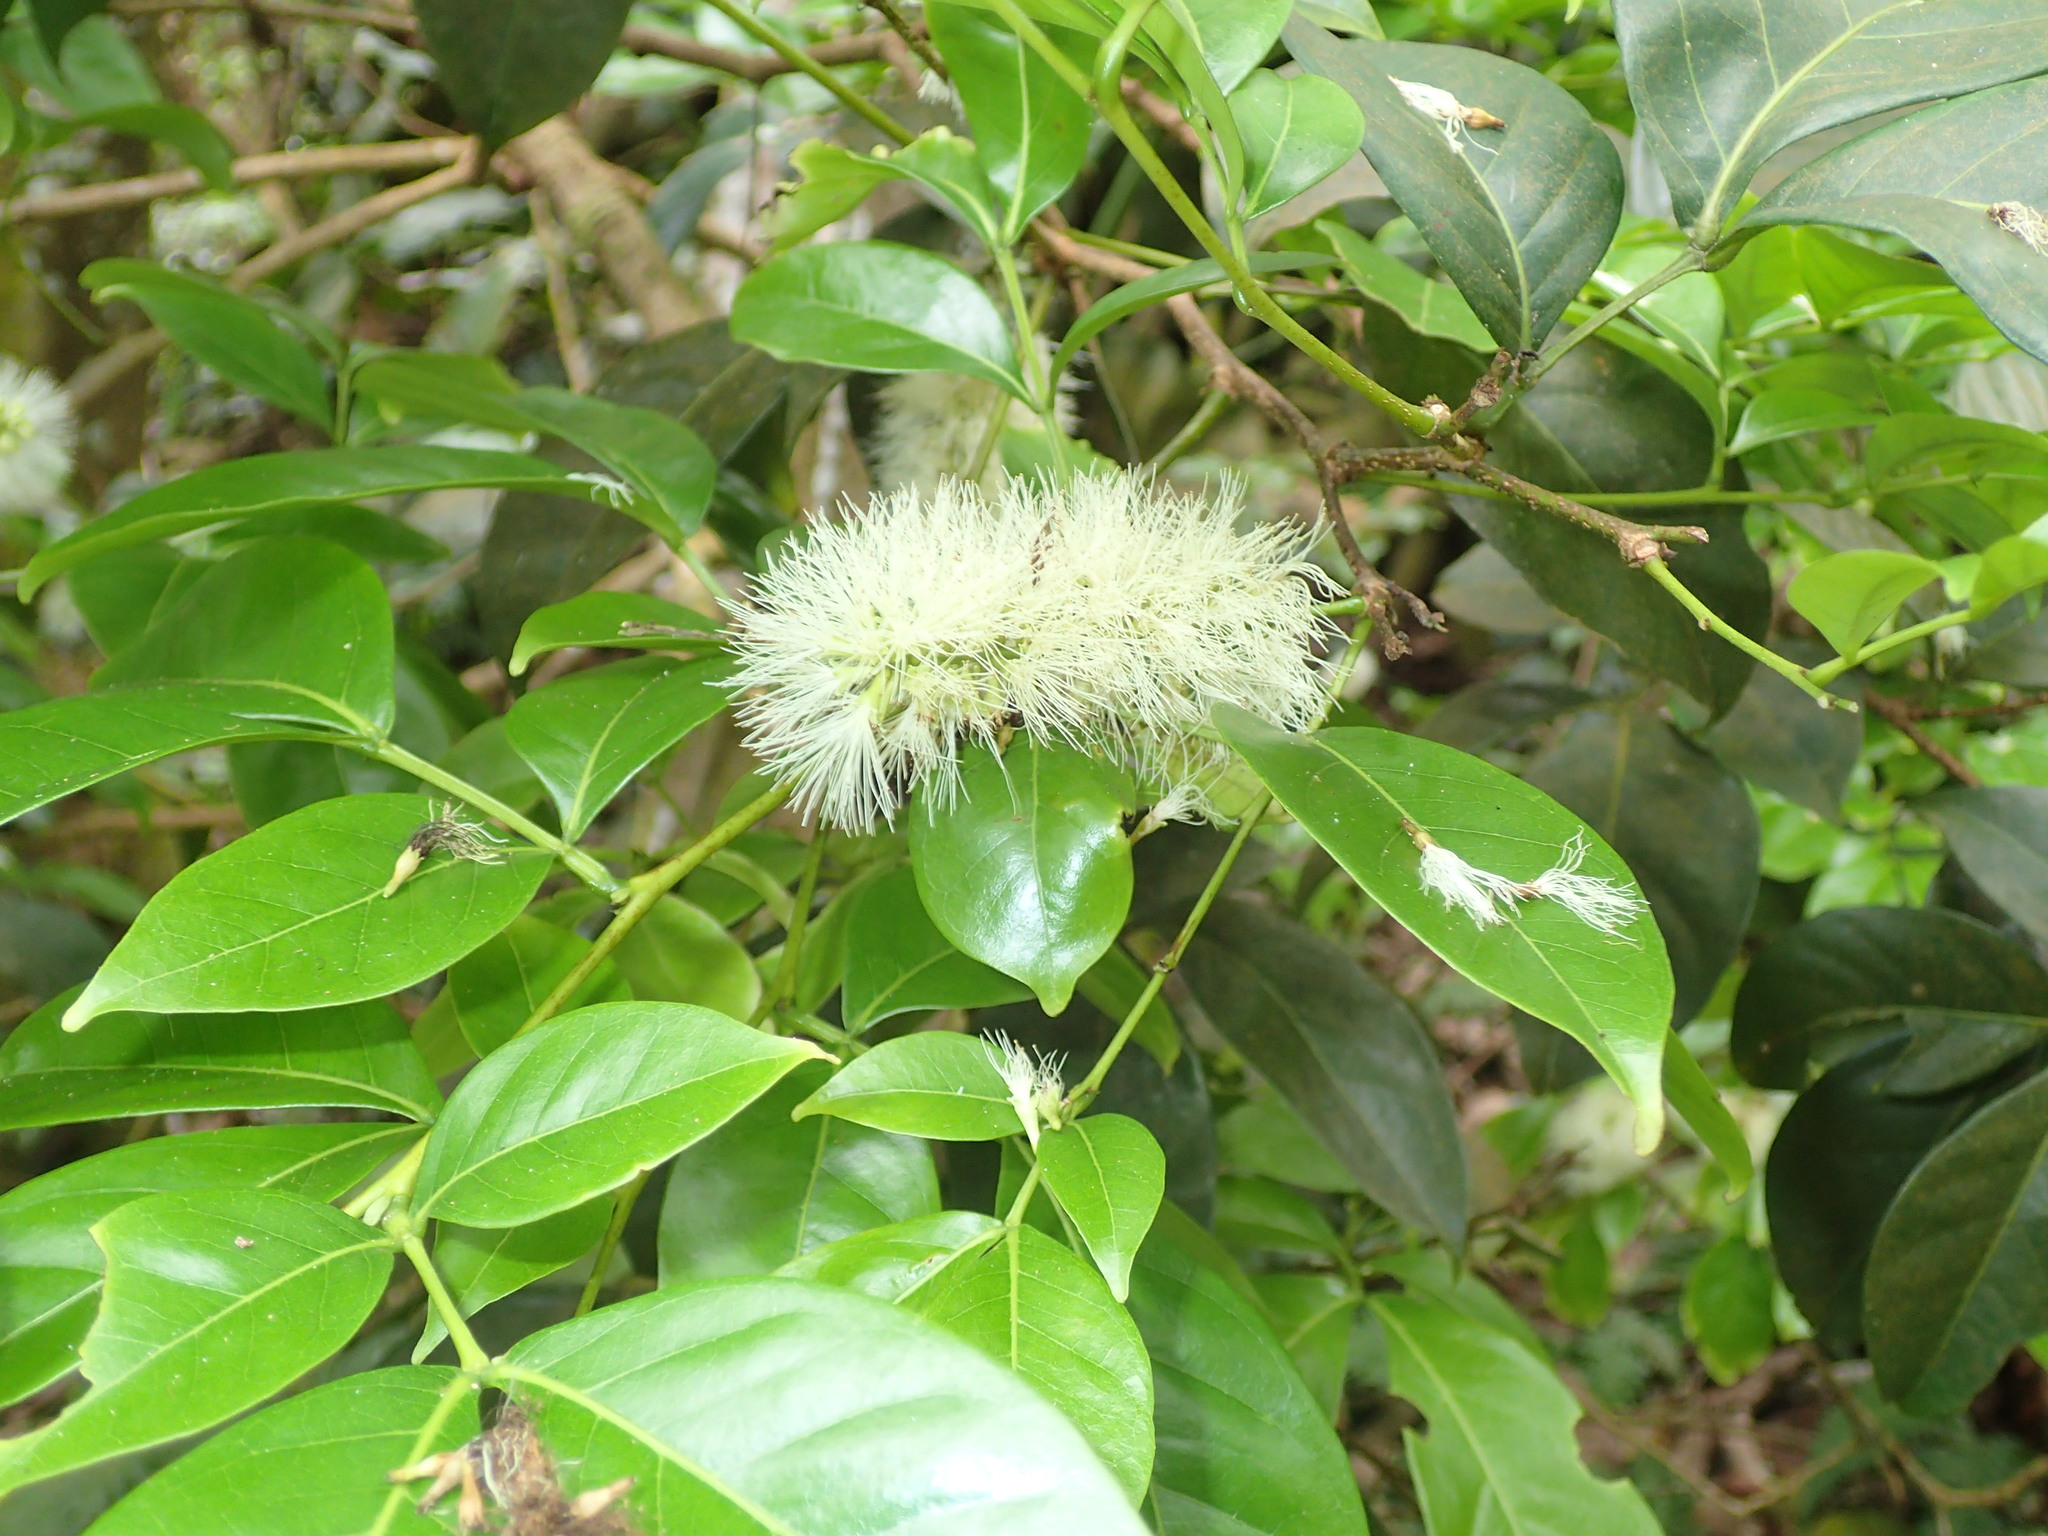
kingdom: Plantae
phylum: Tracheophyta
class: Magnoliopsida
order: Fabales
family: Fabaceae
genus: Inga
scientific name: Inga laurina
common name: Red wood
